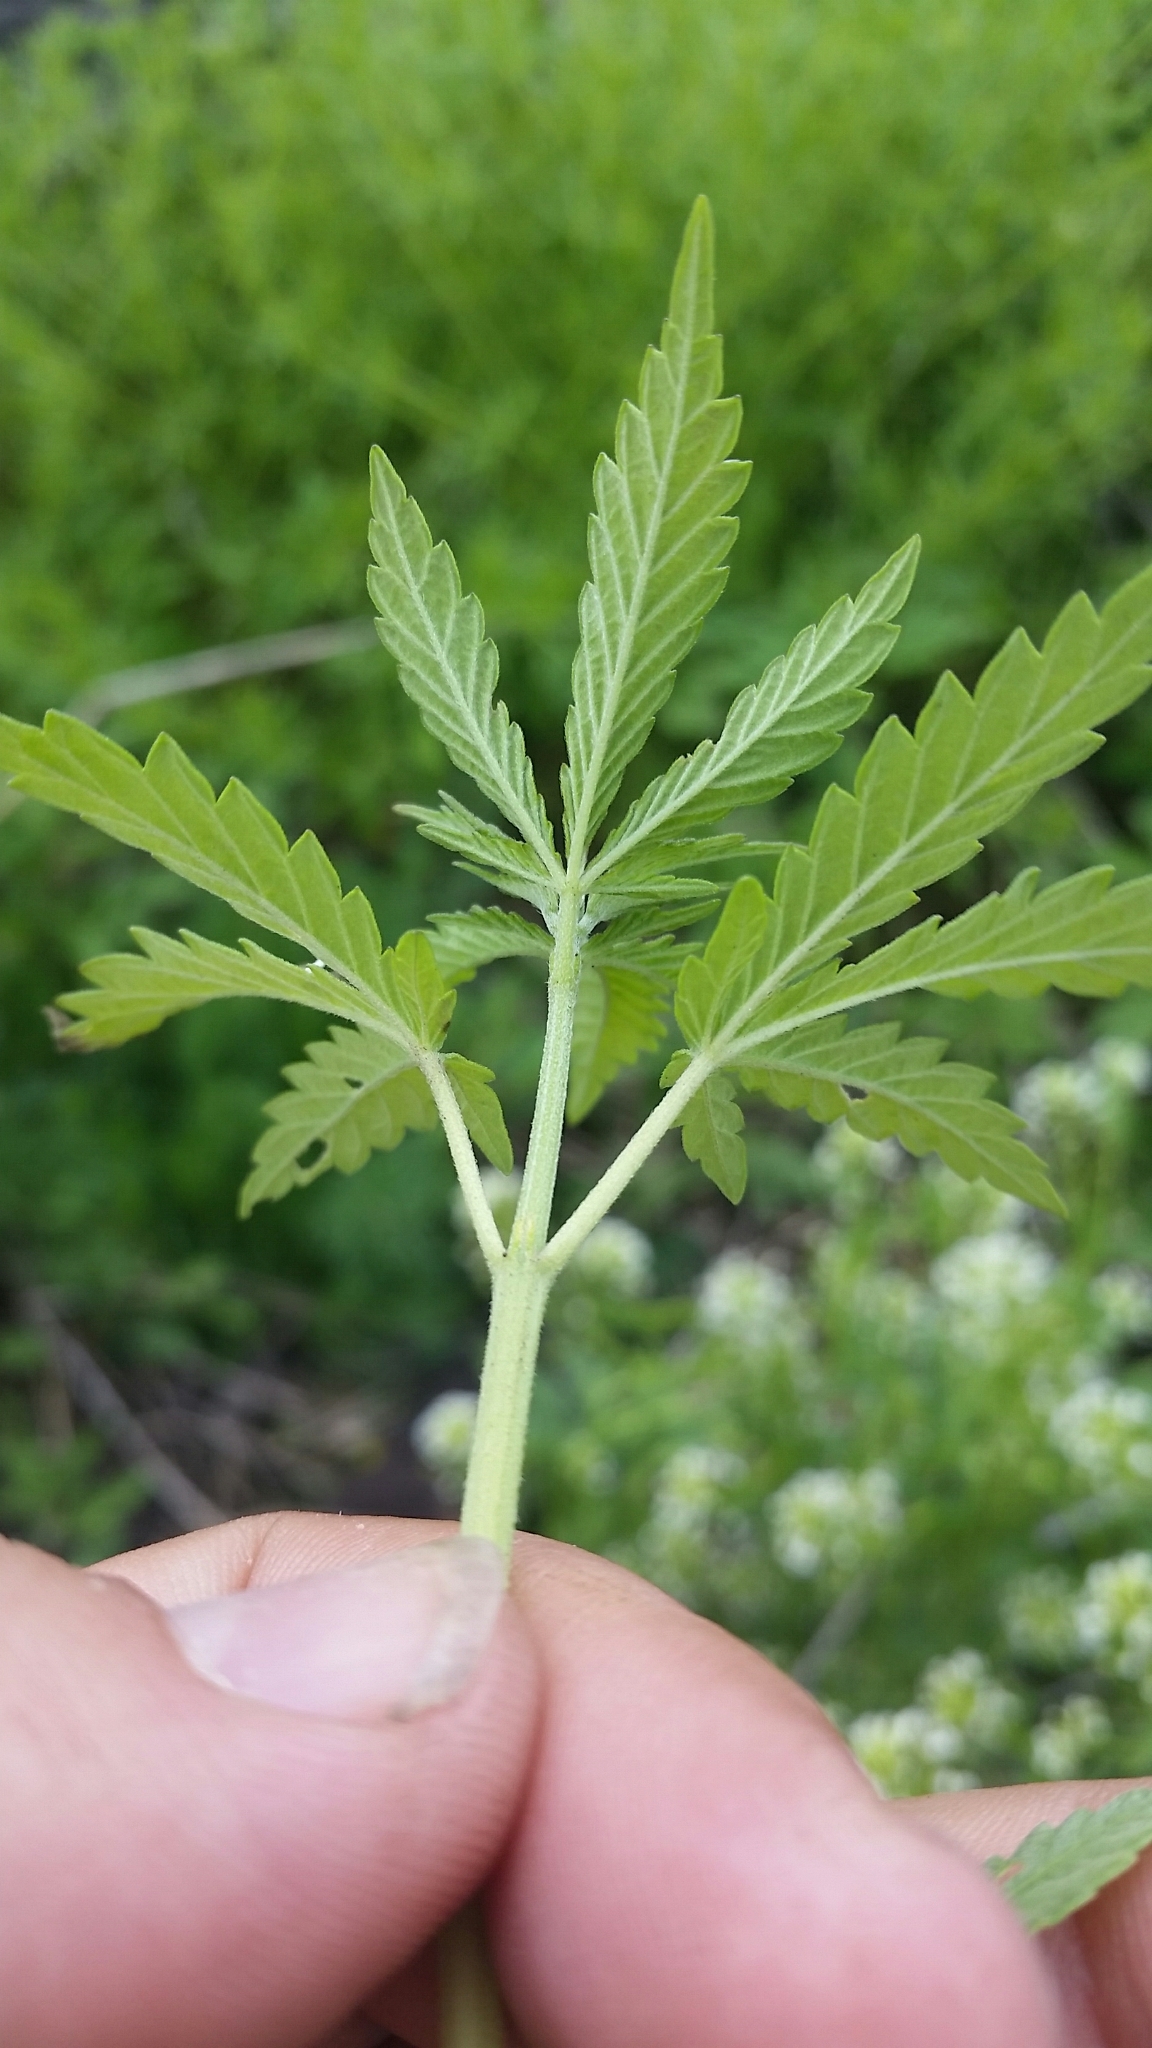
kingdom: Plantae
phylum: Tracheophyta
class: Magnoliopsida
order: Rosales
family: Cannabaceae
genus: Cannabis
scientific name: Cannabis sativa
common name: Hemp
